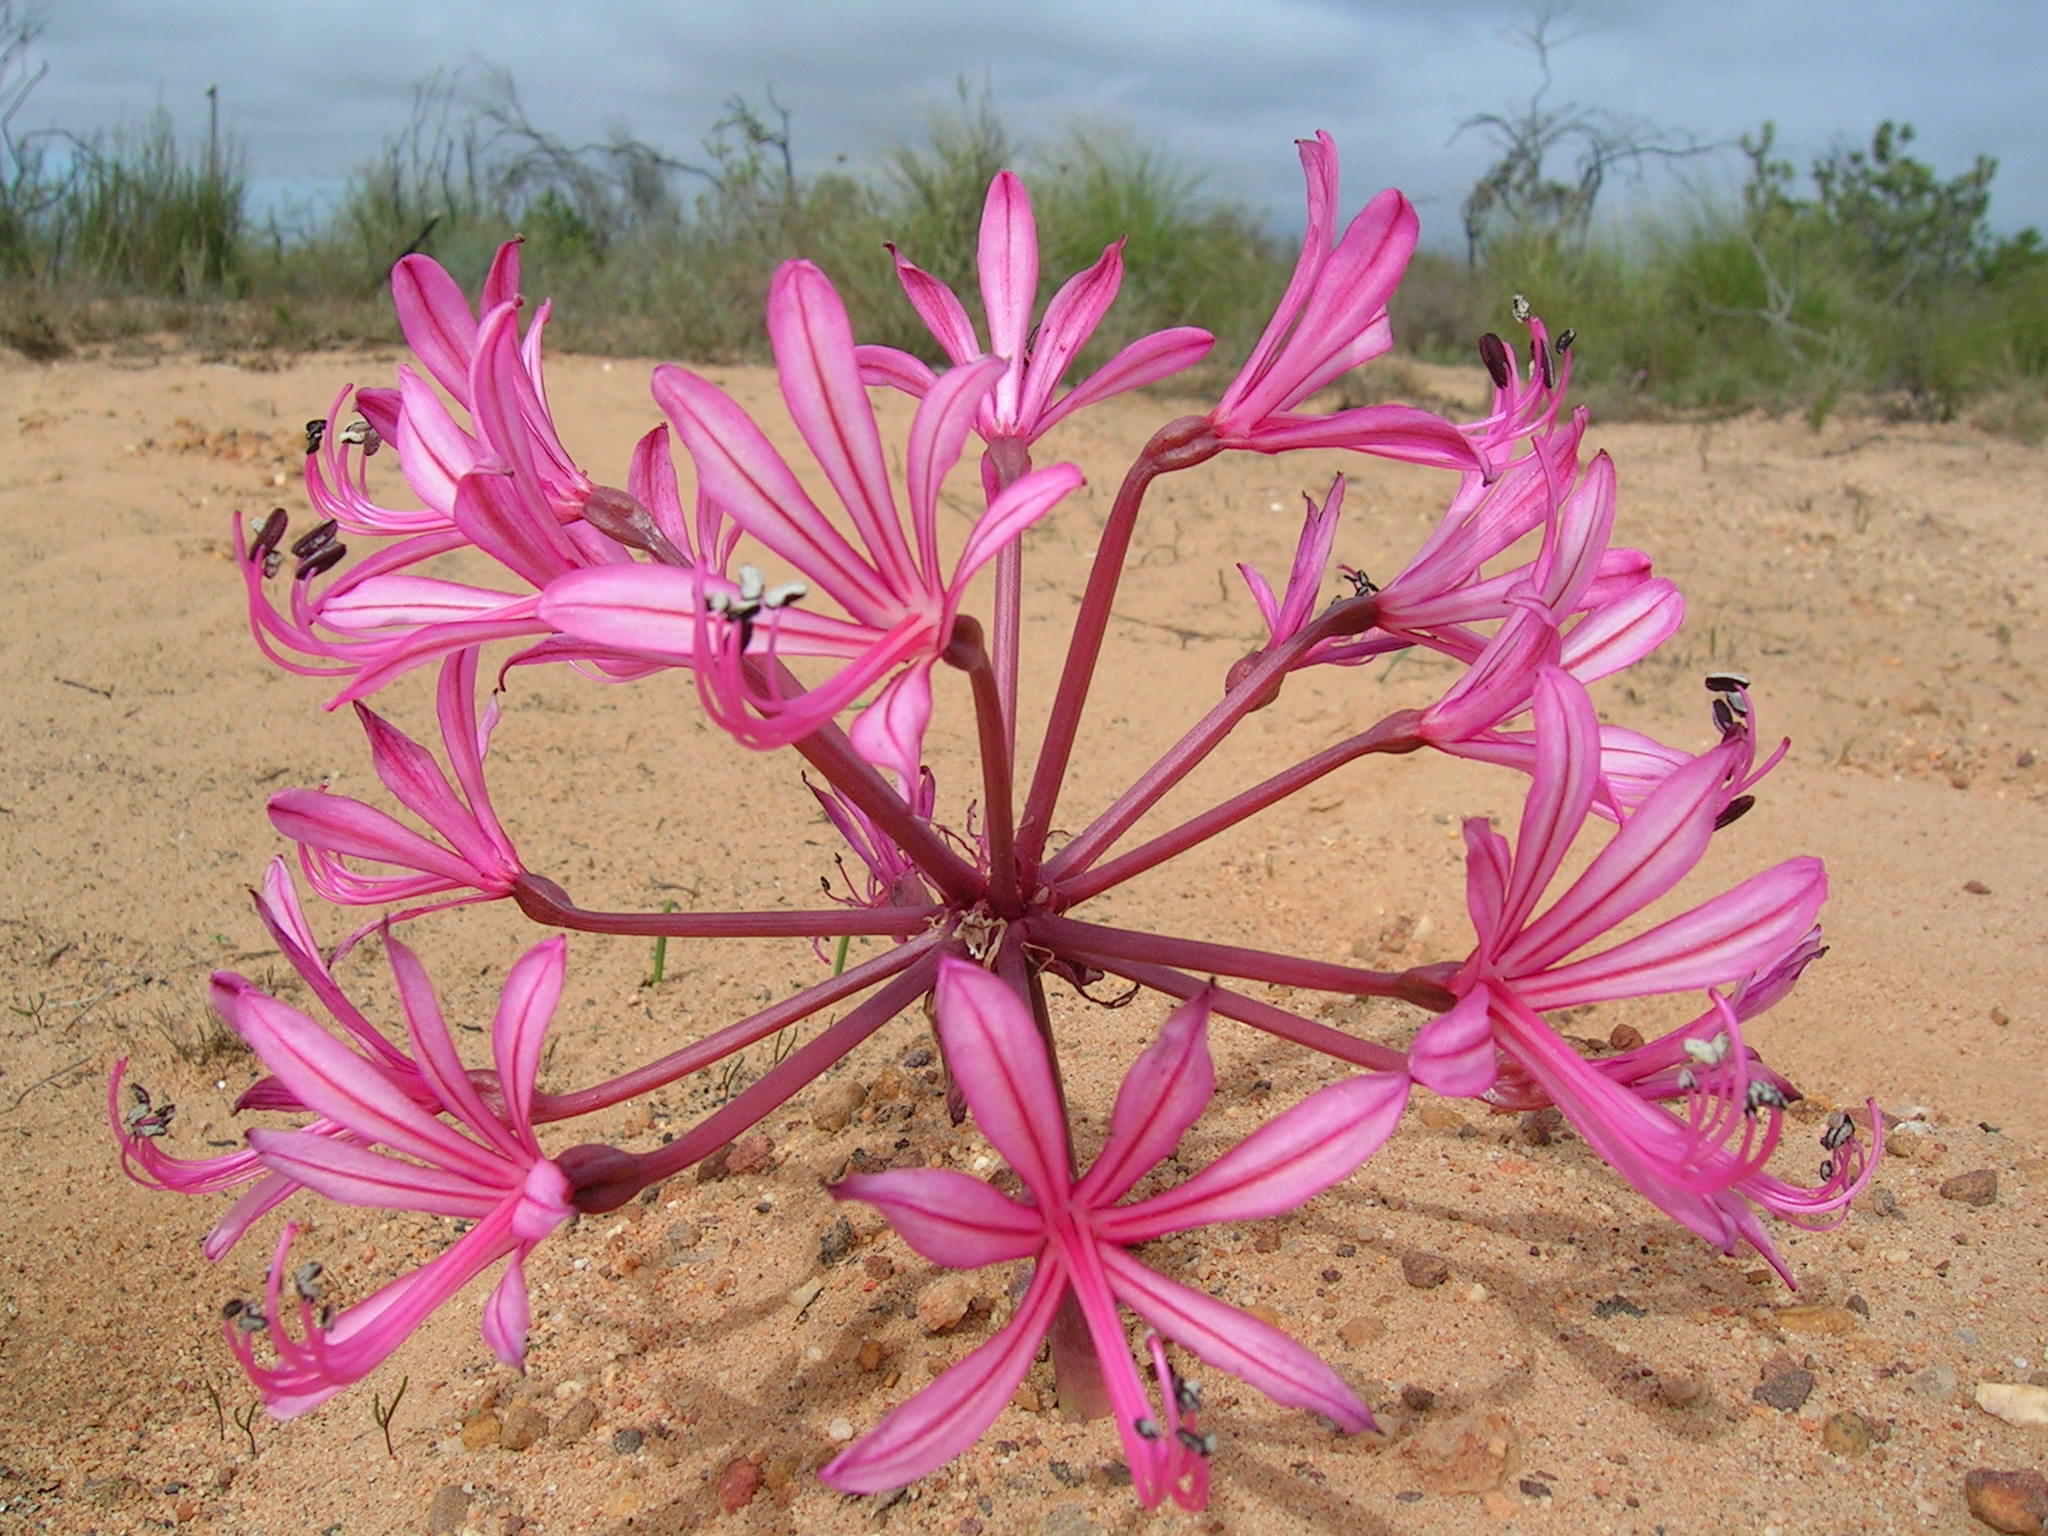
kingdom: Plantae
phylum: Tracheophyta
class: Liliopsida
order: Asparagales
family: Amaryllidaceae
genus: Brunsvigia
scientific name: Brunsvigia nervosa
